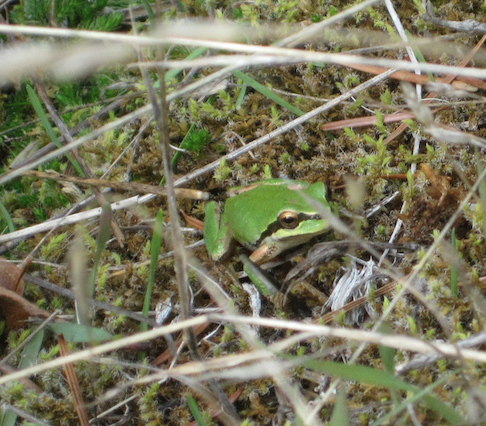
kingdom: Animalia
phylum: Chordata
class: Amphibia
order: Anura
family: Hylidae
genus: Pseudacris
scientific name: Pseudacris regilla
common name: Pacific chorus frog
